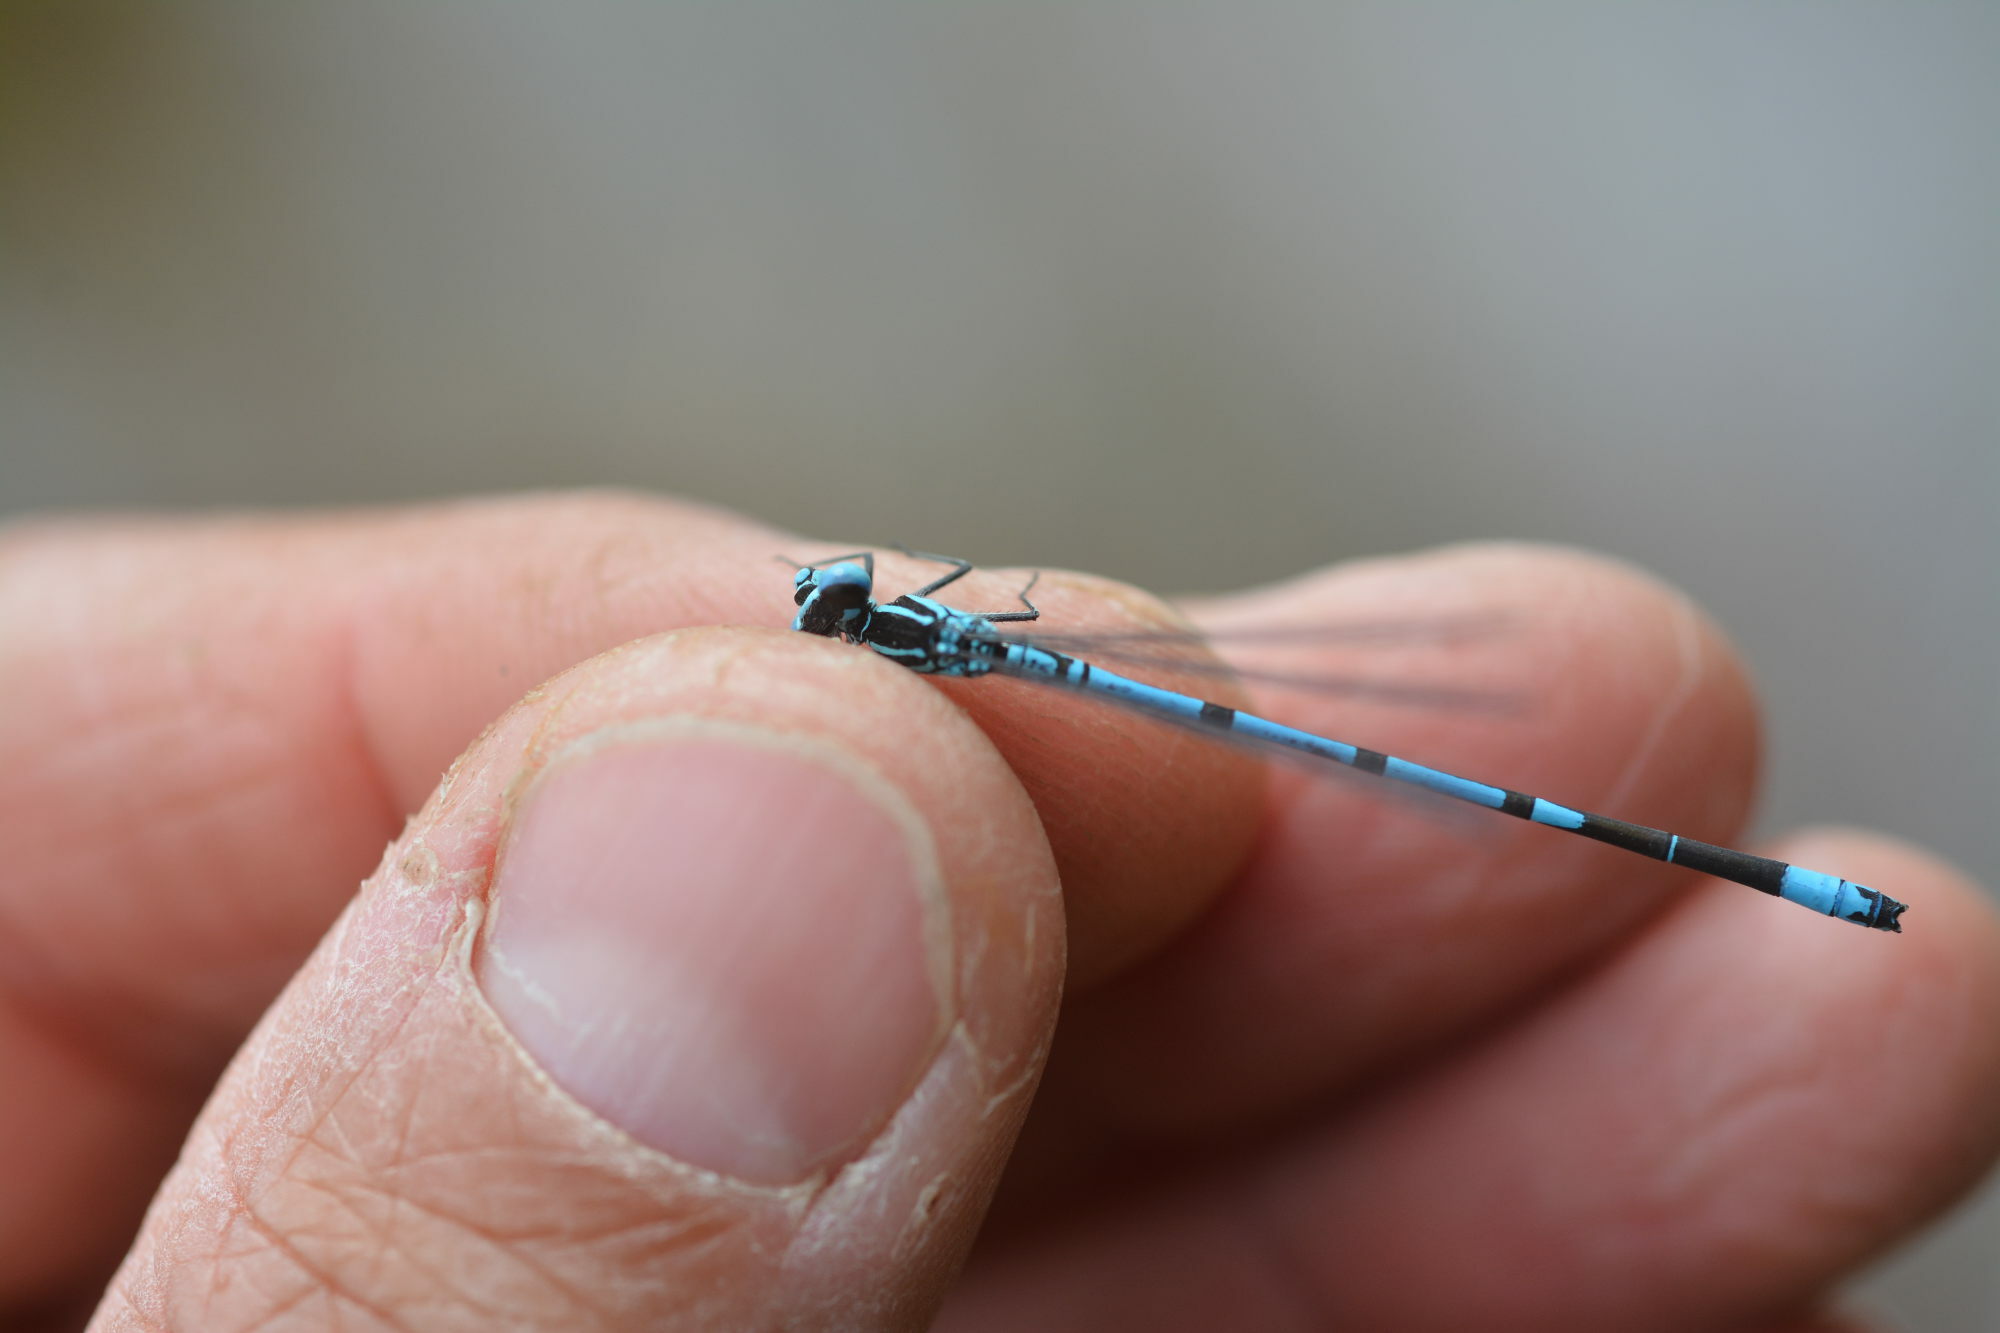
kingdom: Animalia
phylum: Arthropoda
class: Insecta
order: Odonata
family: Coenagrionidae
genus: Coenagrion
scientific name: Coenagrion puella
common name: Azure damselfly
